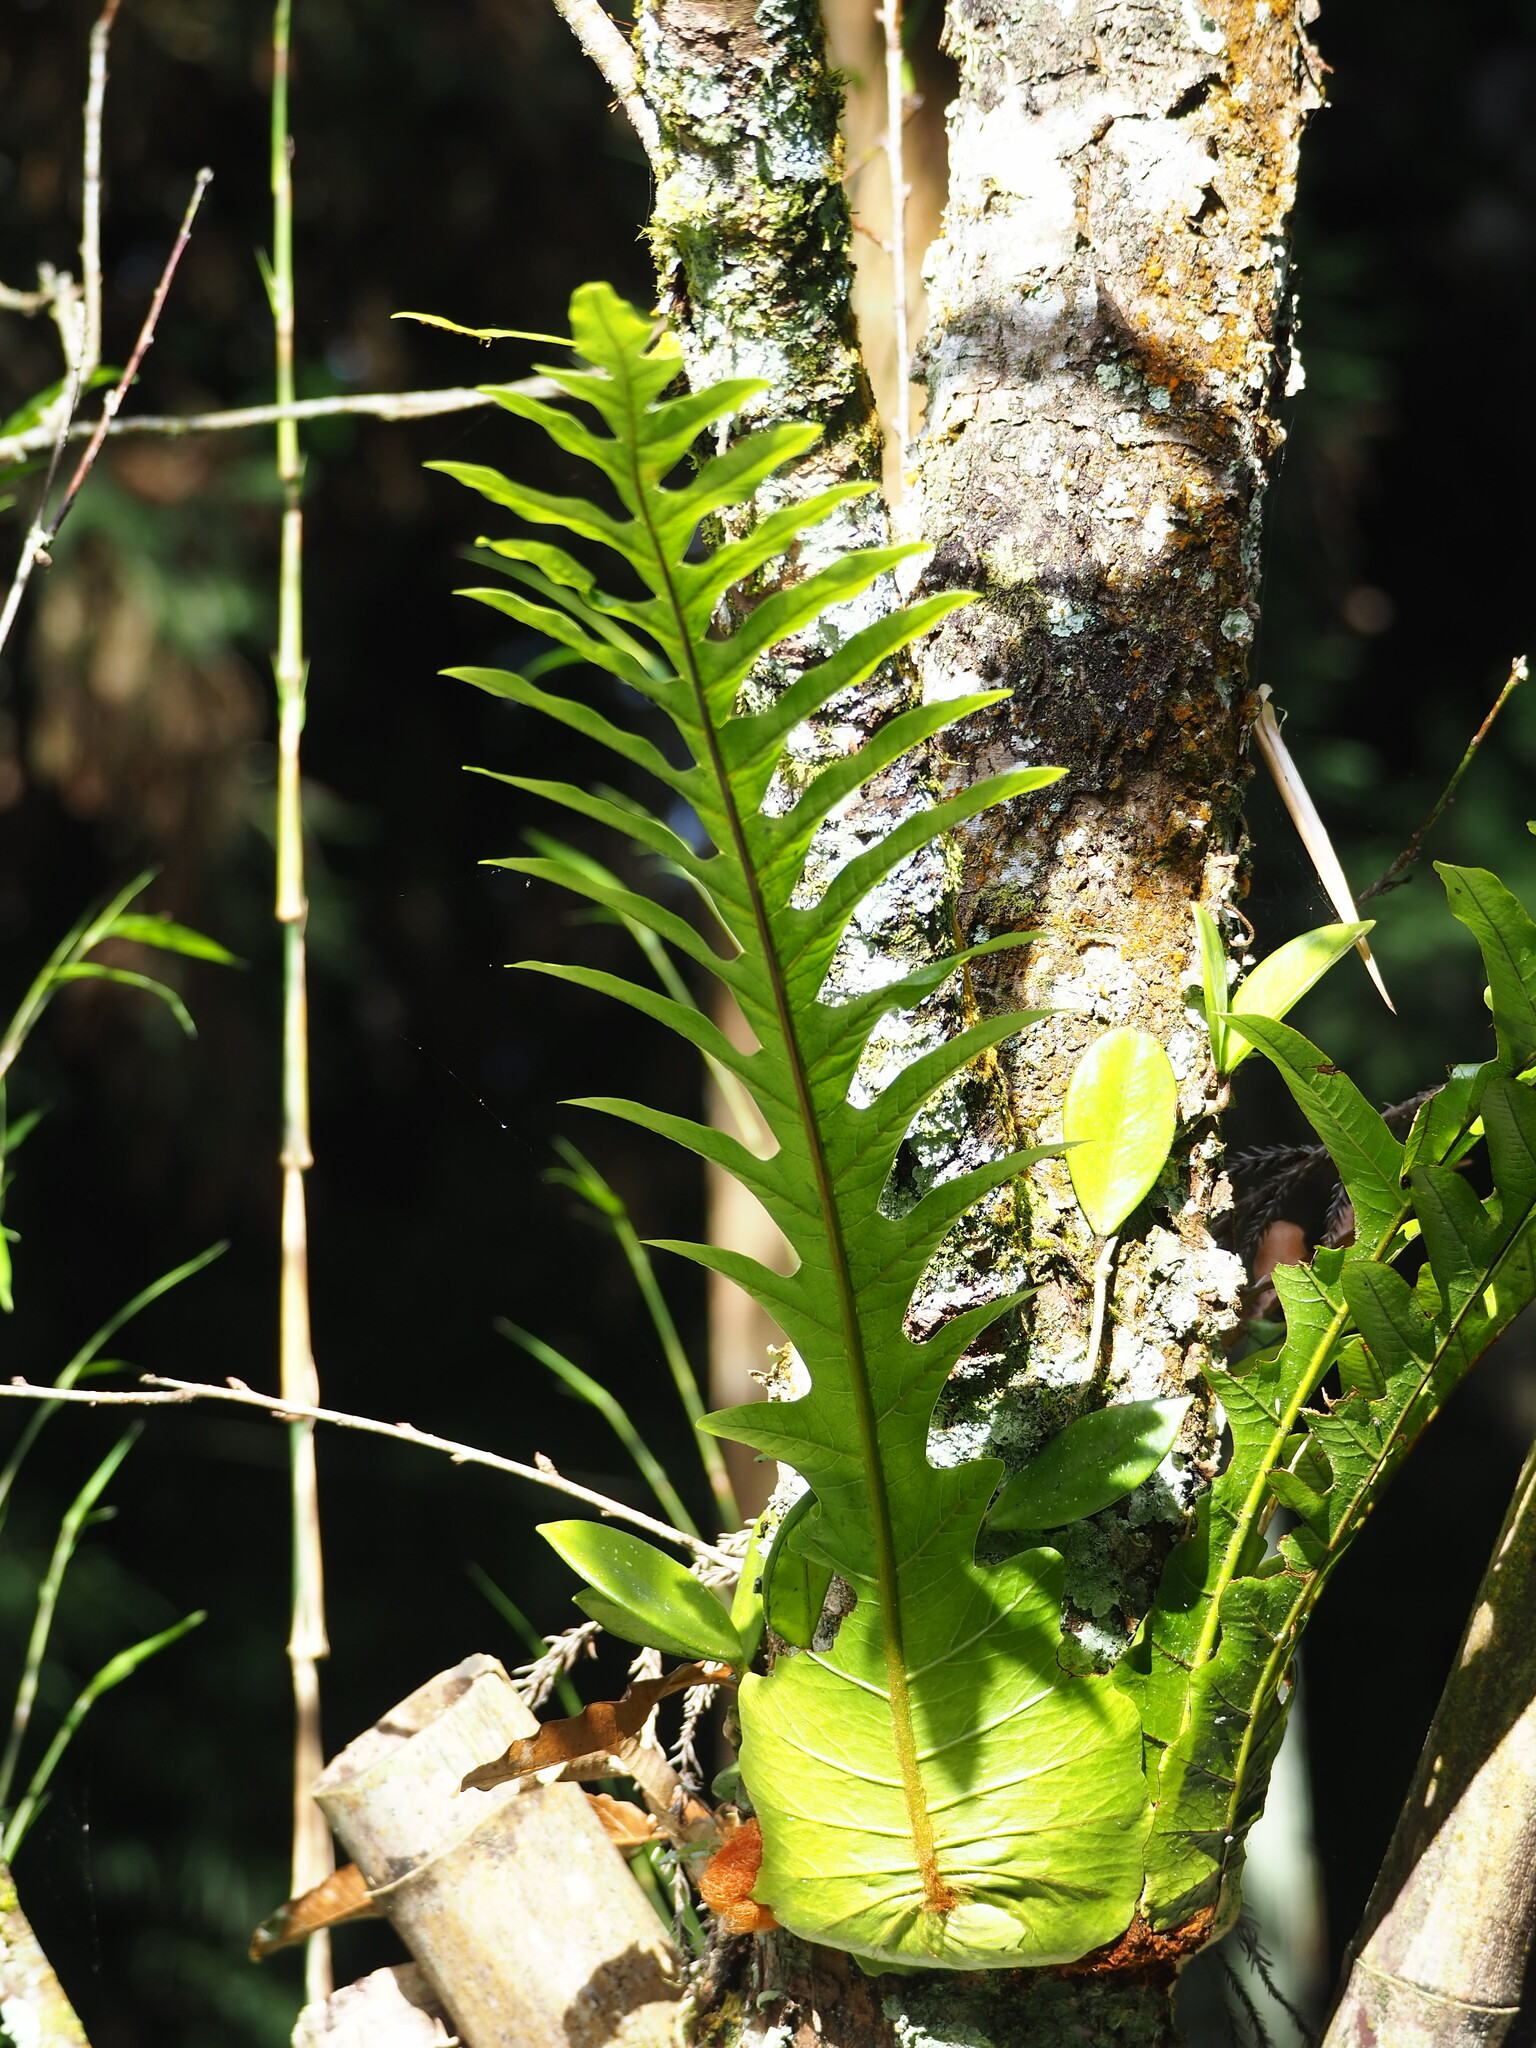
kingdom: Plantae
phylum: Tracheophyta
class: Polypodiopsida
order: Polypodiales
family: Polypodiaceae
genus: Drynaria
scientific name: Drynaria coronans
